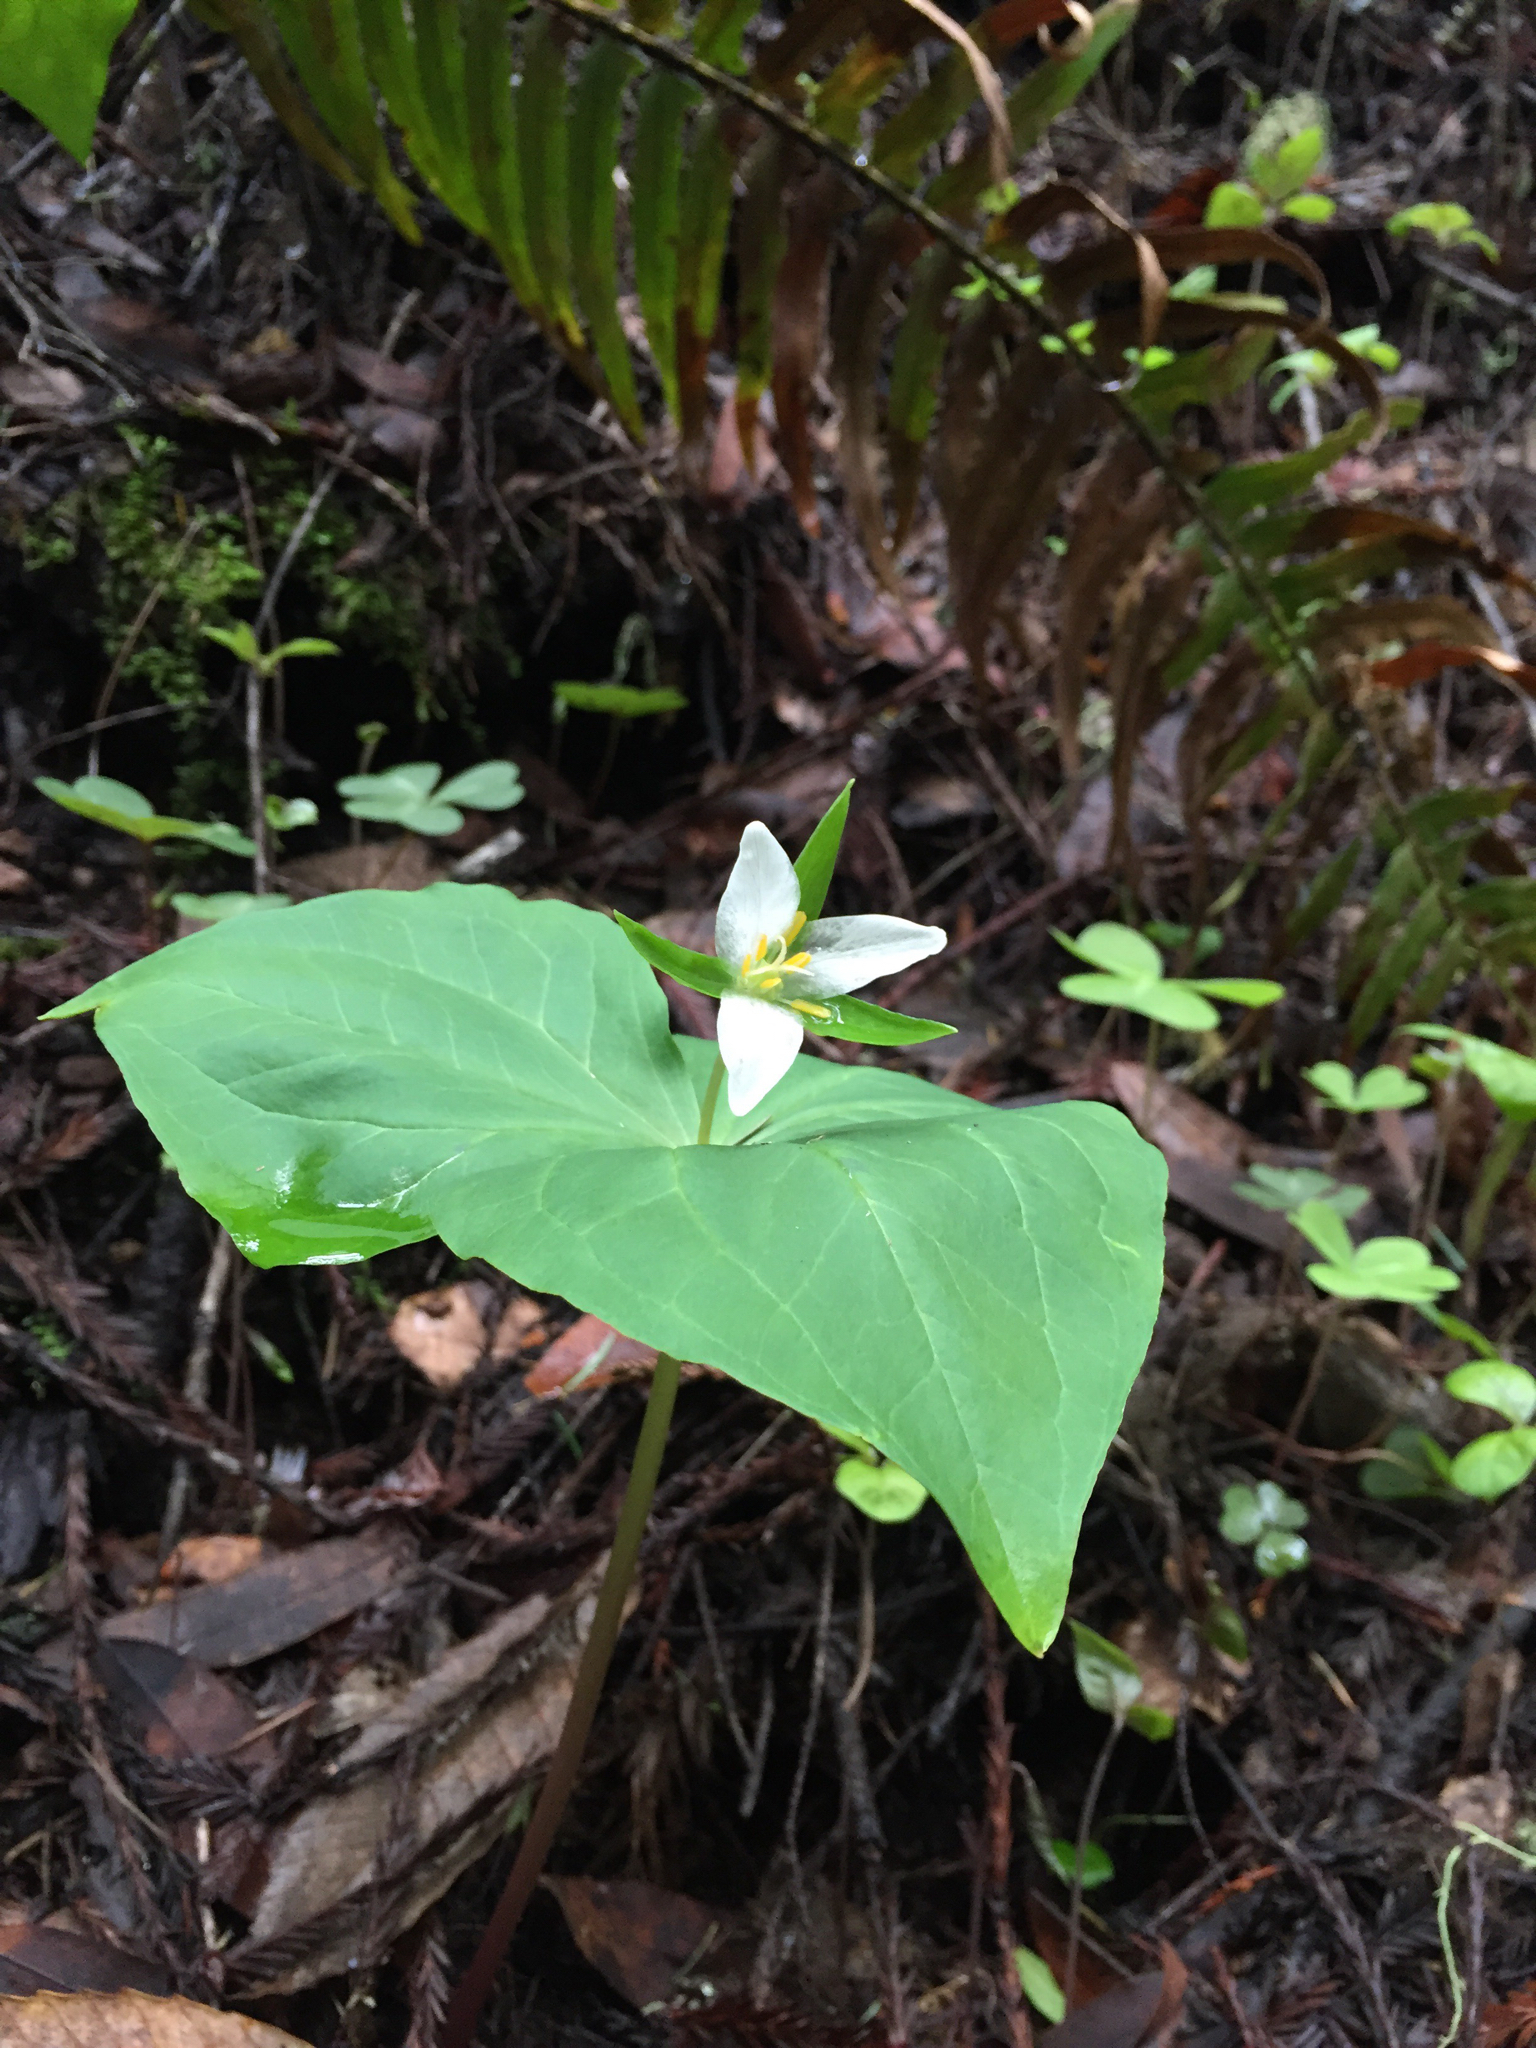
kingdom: Plantae
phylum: Tracheophyta
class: Liliopsida
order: Liliales
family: Melanthiaceae
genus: Trillium
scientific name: Trillium ovatum
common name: Pacific trillium
